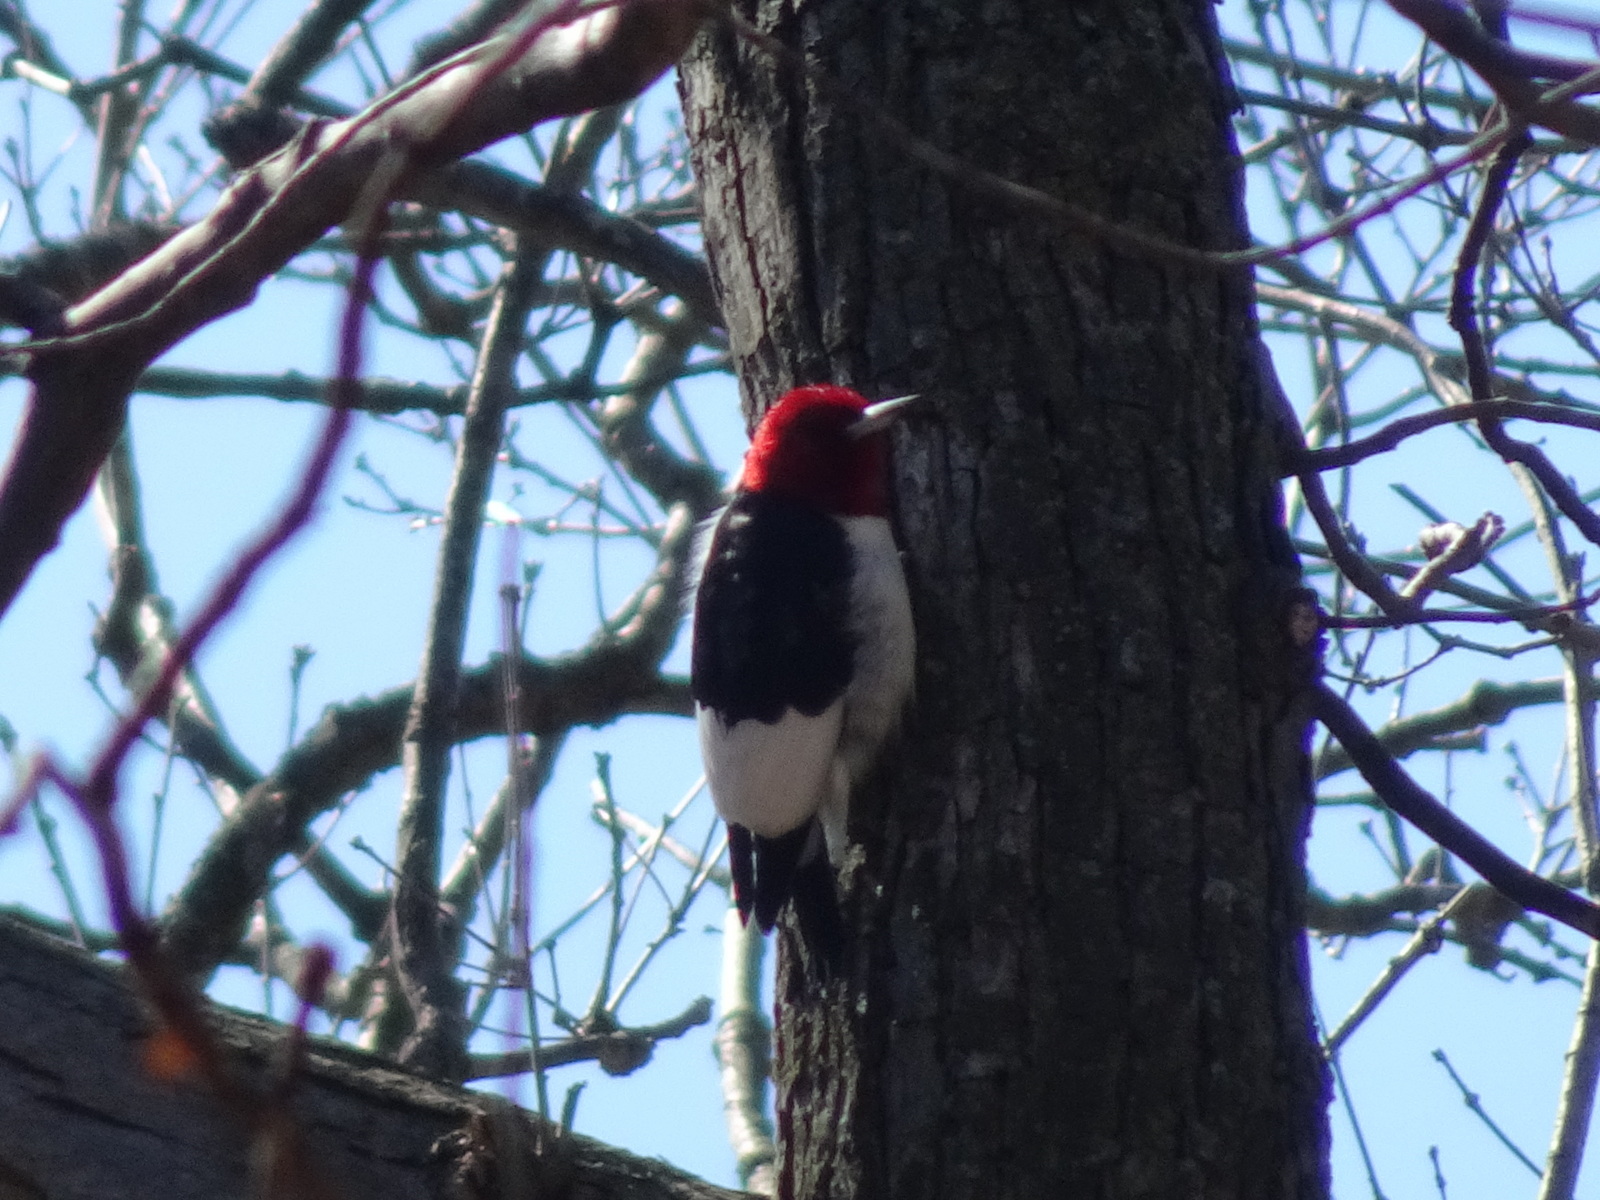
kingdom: Animalia
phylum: Chordata
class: Aves
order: Piciformes
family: Picidae
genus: Melanerpes
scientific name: Melanerpes erythrocephalus
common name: Red-headed woodpecker
